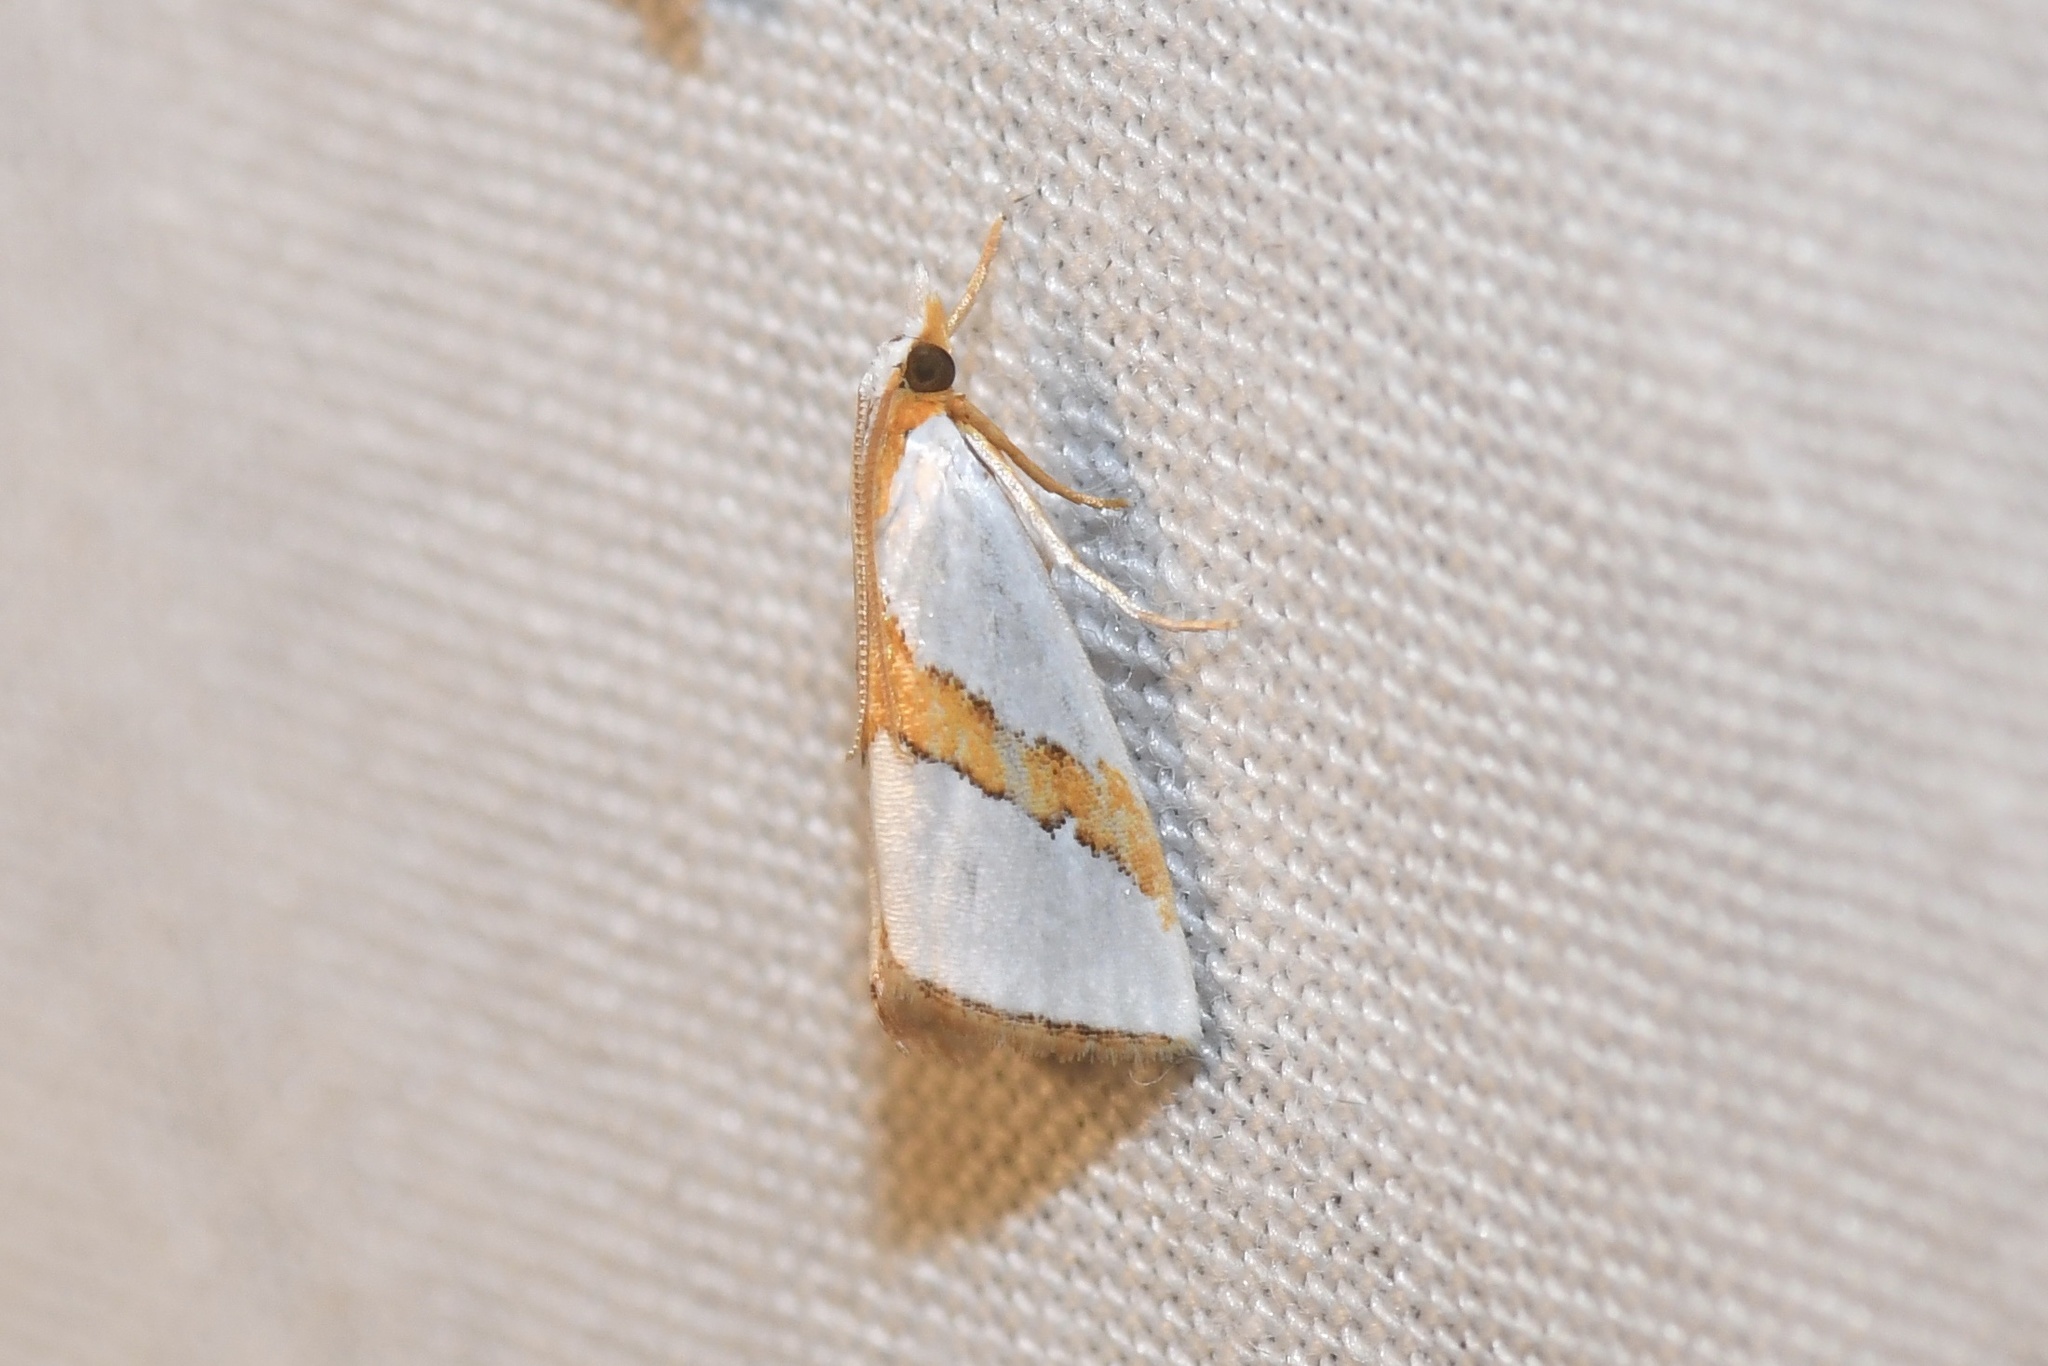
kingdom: Animalia
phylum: Arthropoda
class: Insecta
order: Lepidoptera
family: Crambidae
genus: Vaxi
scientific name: Vaxi critica
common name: Straight-lined vaxi moth
